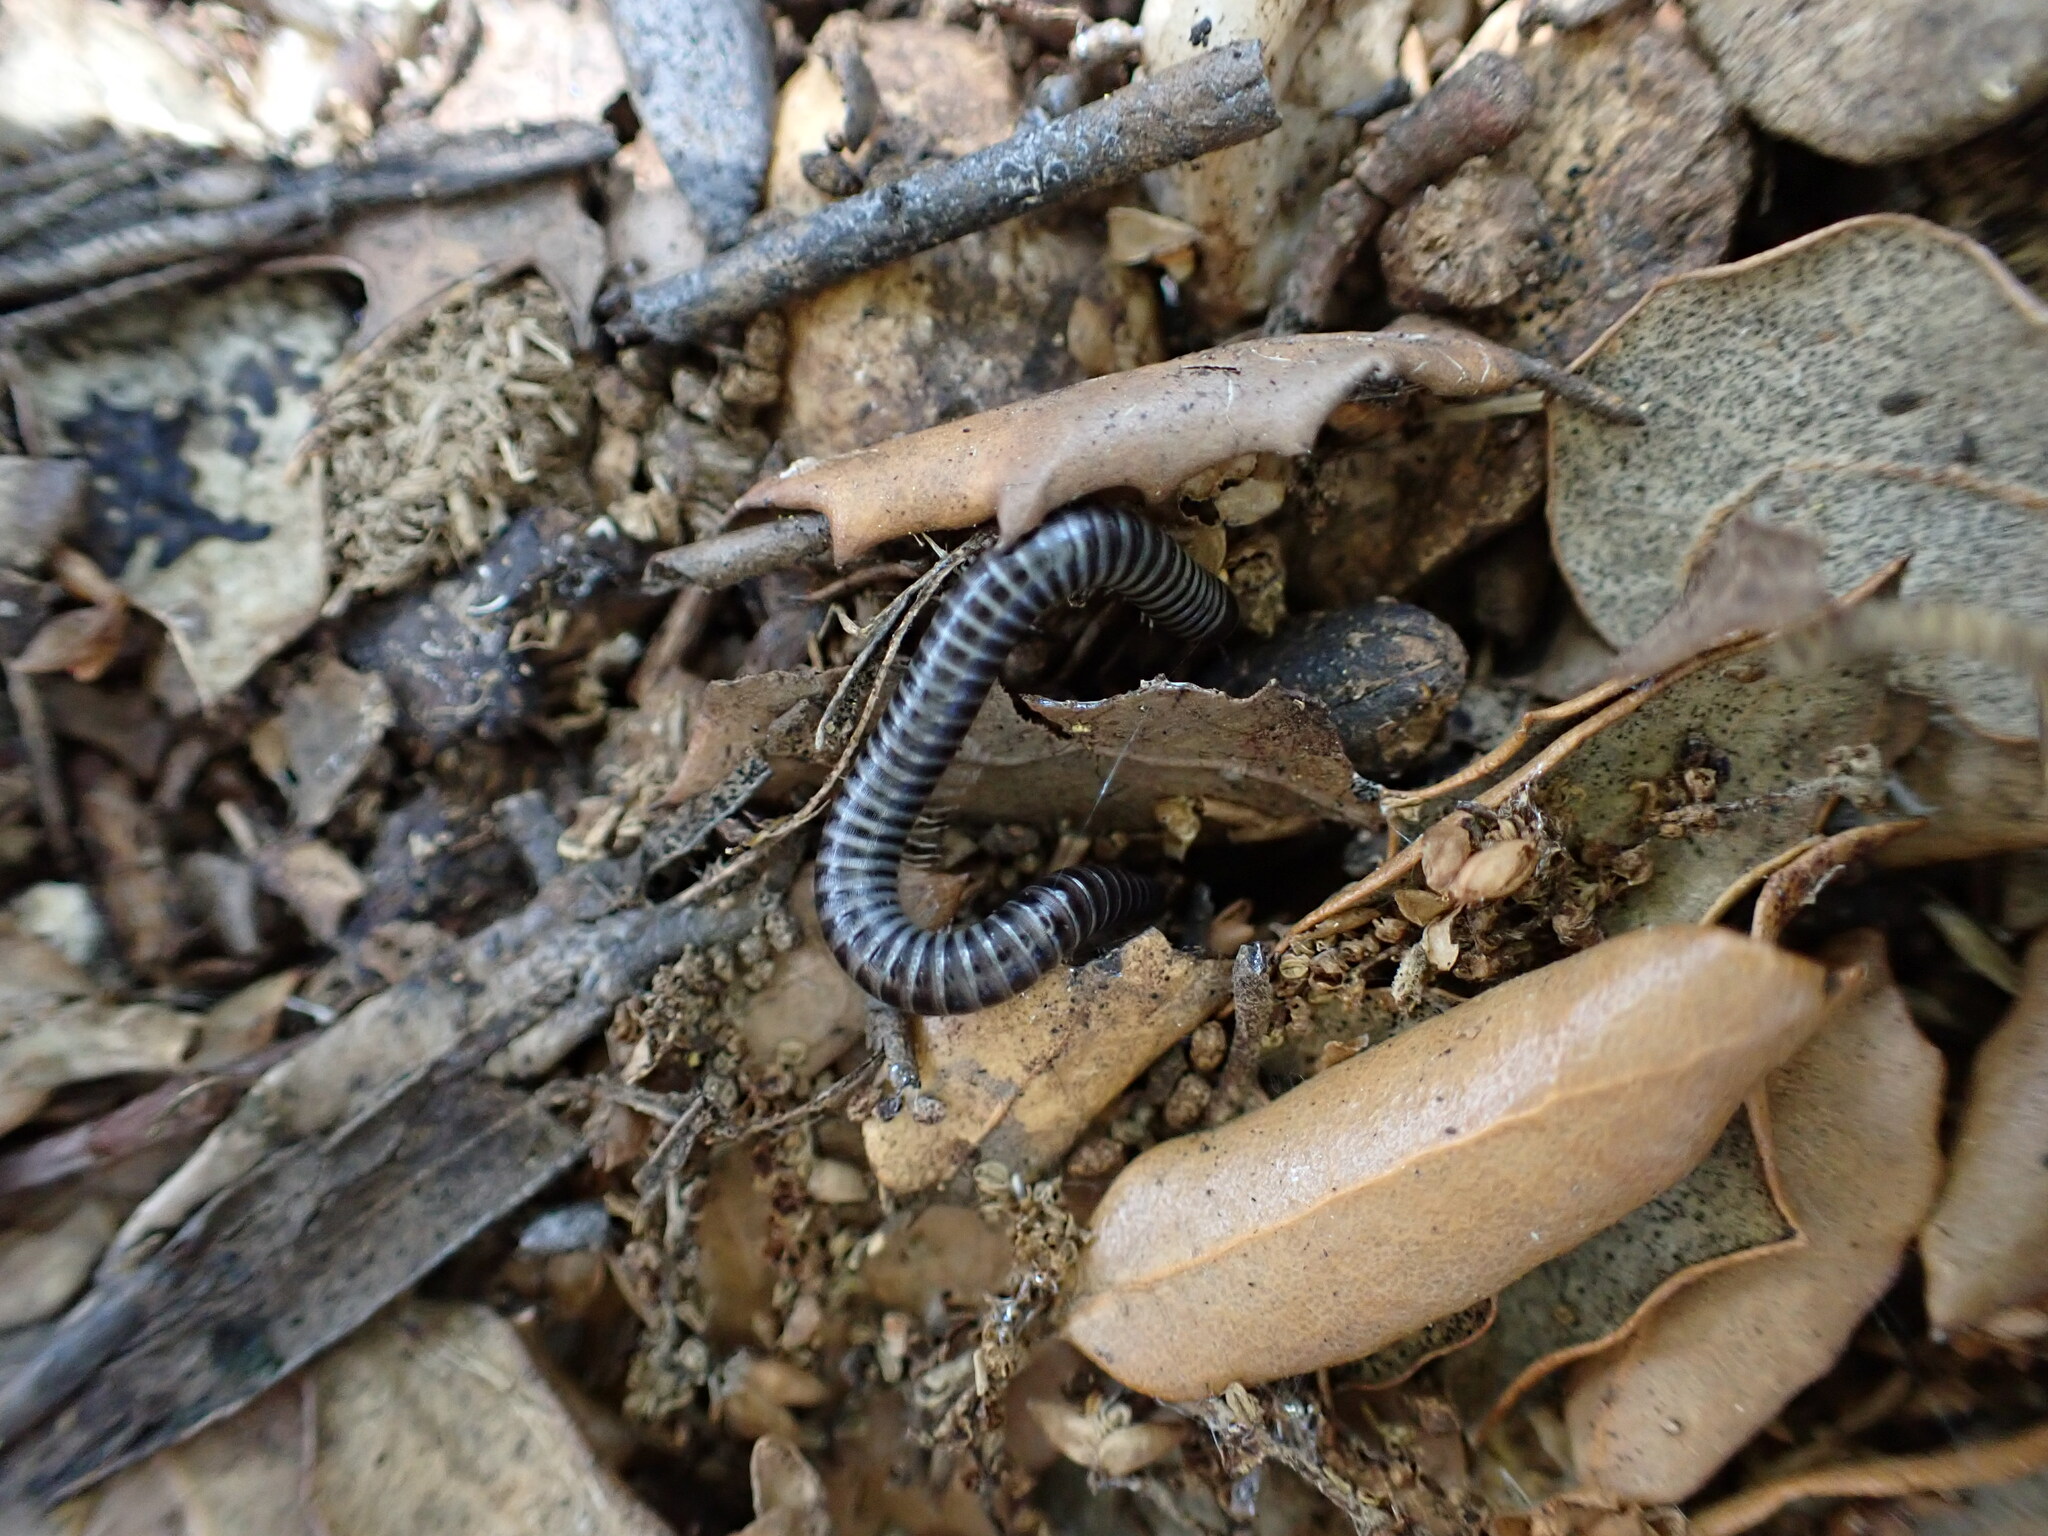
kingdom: Animalia
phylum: Arthropoda
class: Diplopoda
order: Julida
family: Julidae
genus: Ommatoiulus
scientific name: Ommatoiulus sabulosus
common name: Striped millipede
